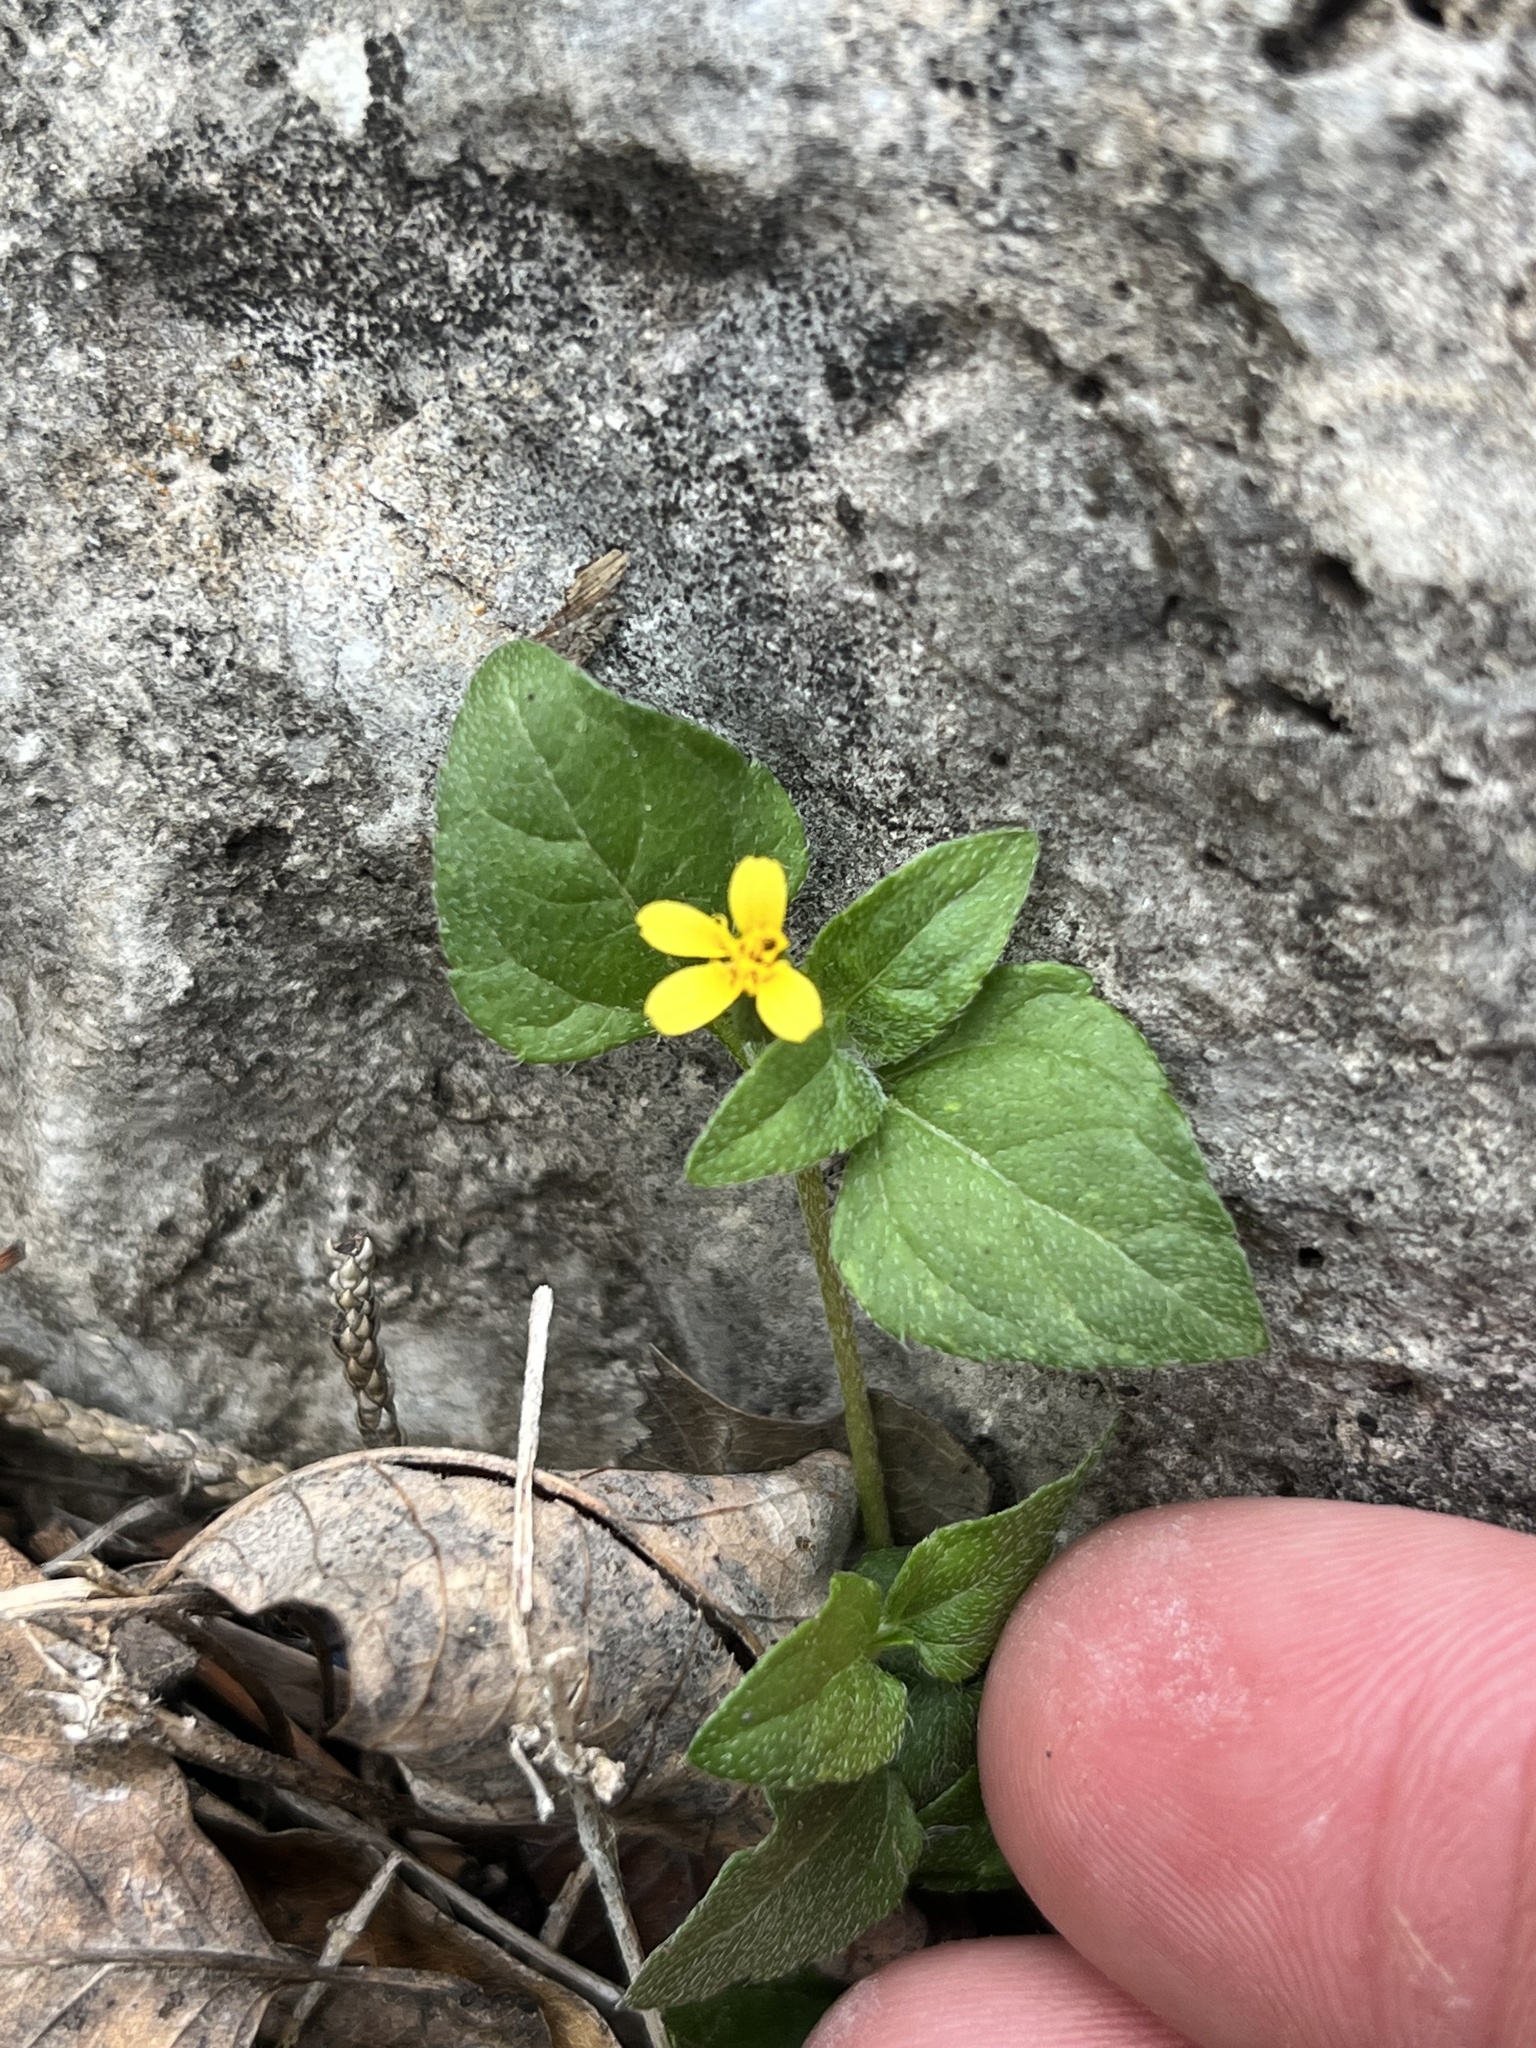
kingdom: Plantae
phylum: Tracheophyta
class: Magnoliopsida
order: Asterales
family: Asteraceae
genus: Calyptocarpus
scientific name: Calyptocarpus vialis
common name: Straggler daisy
